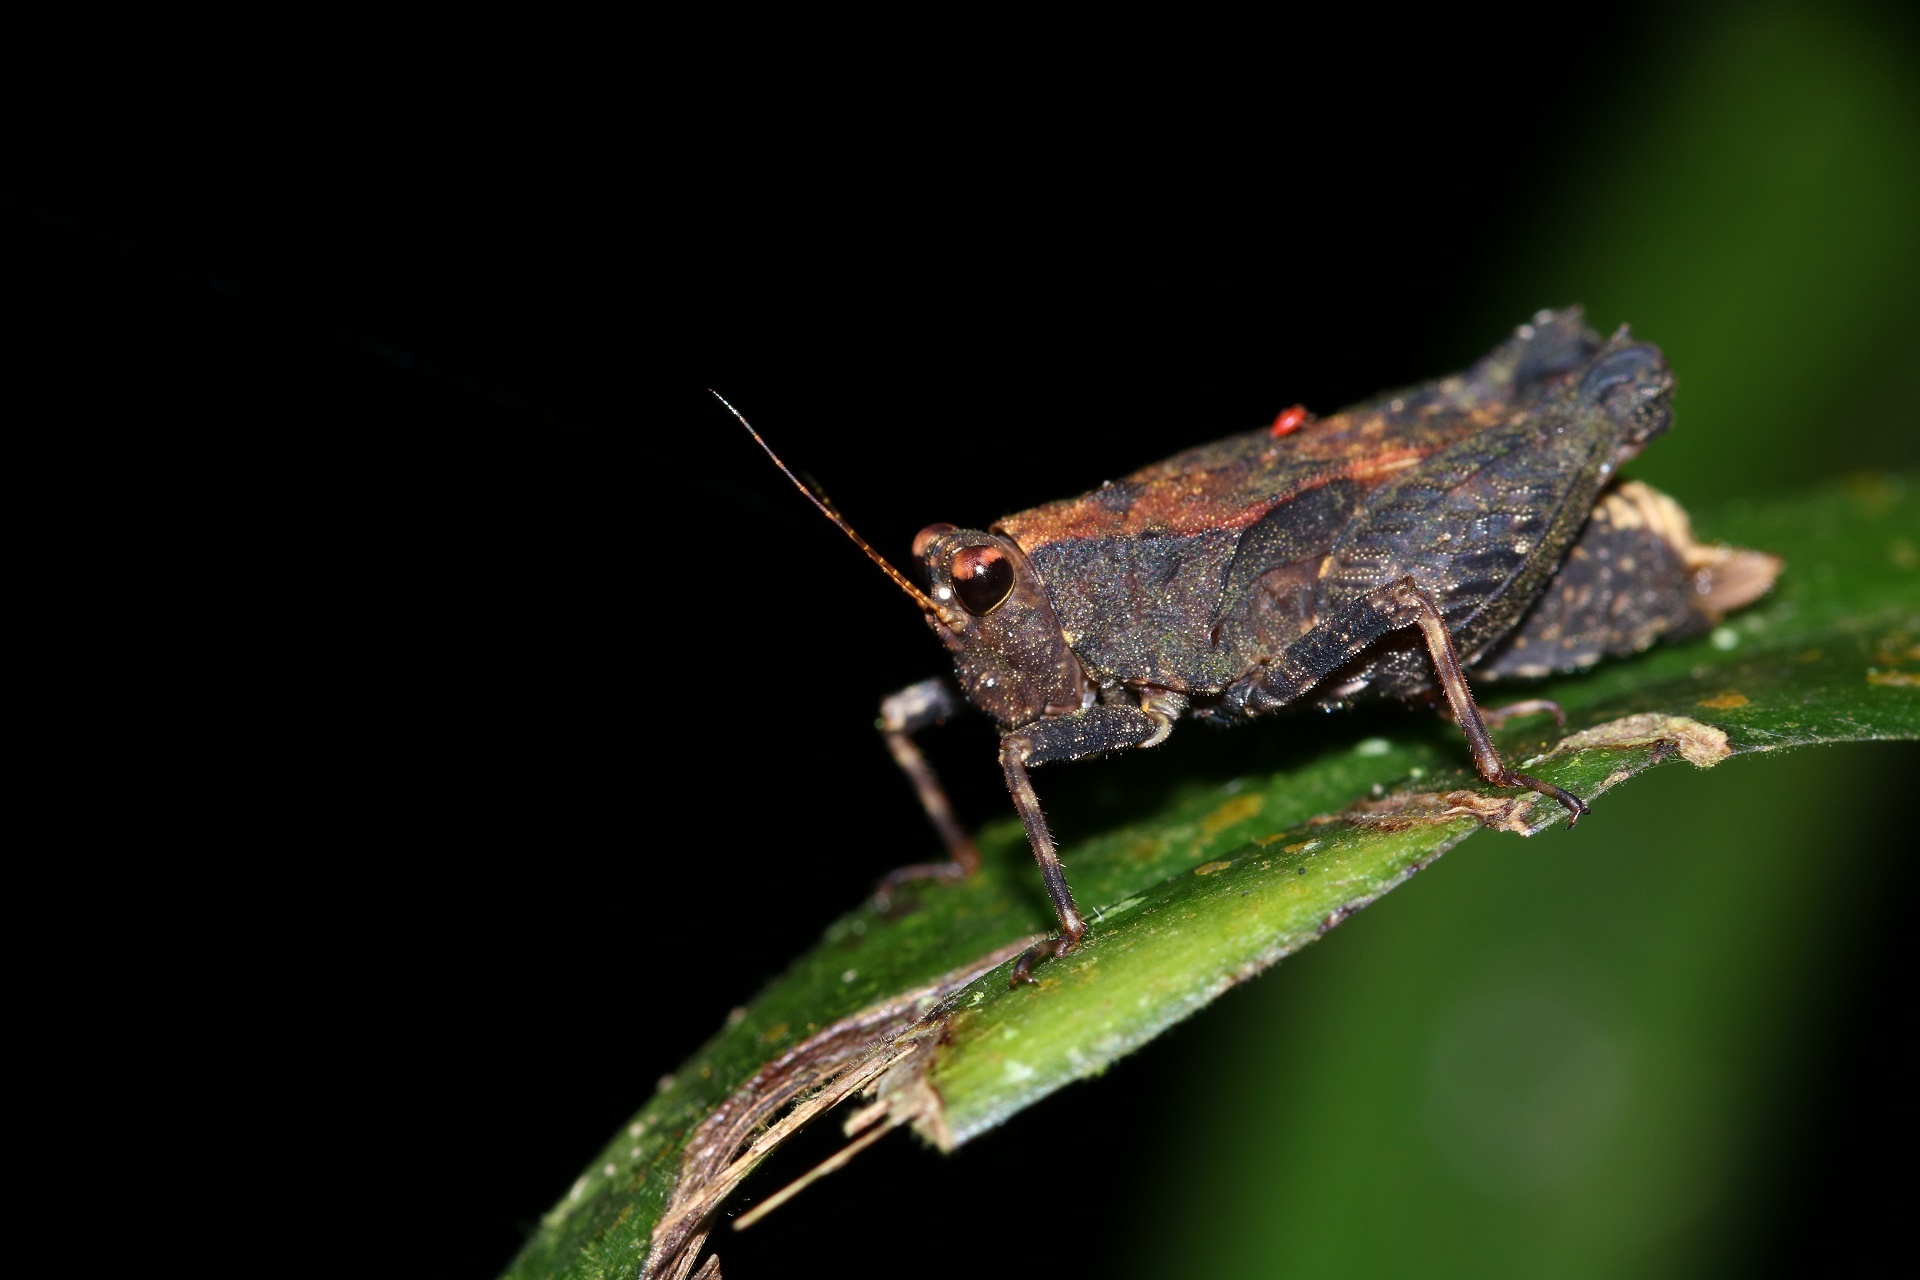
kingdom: Animalia
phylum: Arthropoda
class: Insecta
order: Orthoptera
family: Tetrigidae
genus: Bolivaritettix
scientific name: Bolivaritettix apterus
